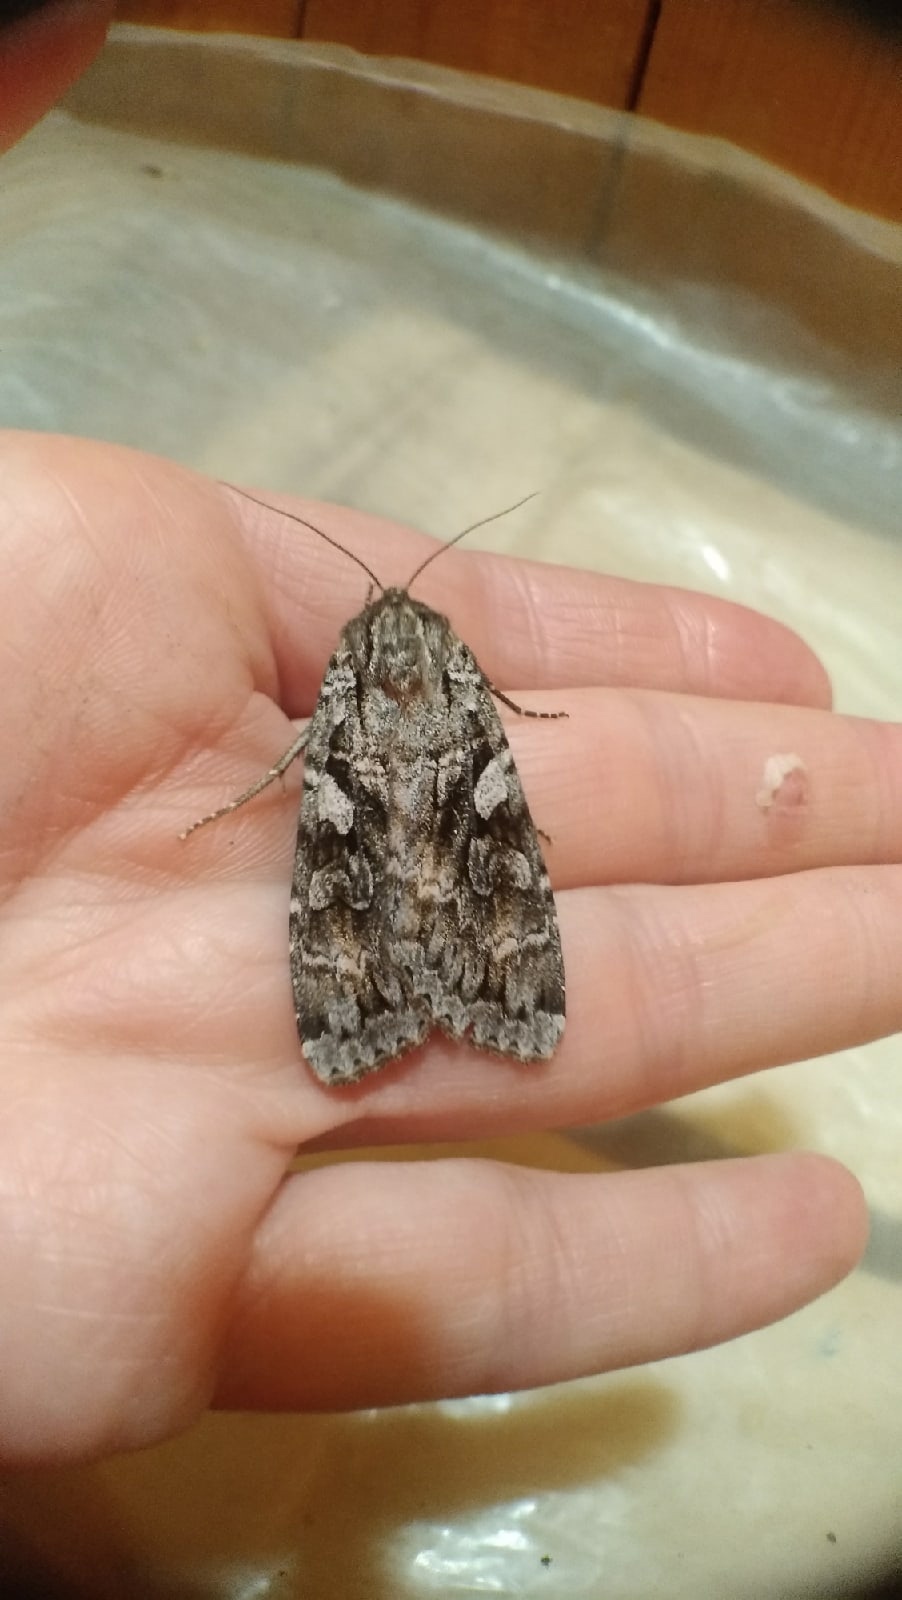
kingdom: Animalia
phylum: Arthropoda
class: Insecta
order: Lepidoptera
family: Noctuidae
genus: Eurois
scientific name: Eurois occulta
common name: Great brocade
